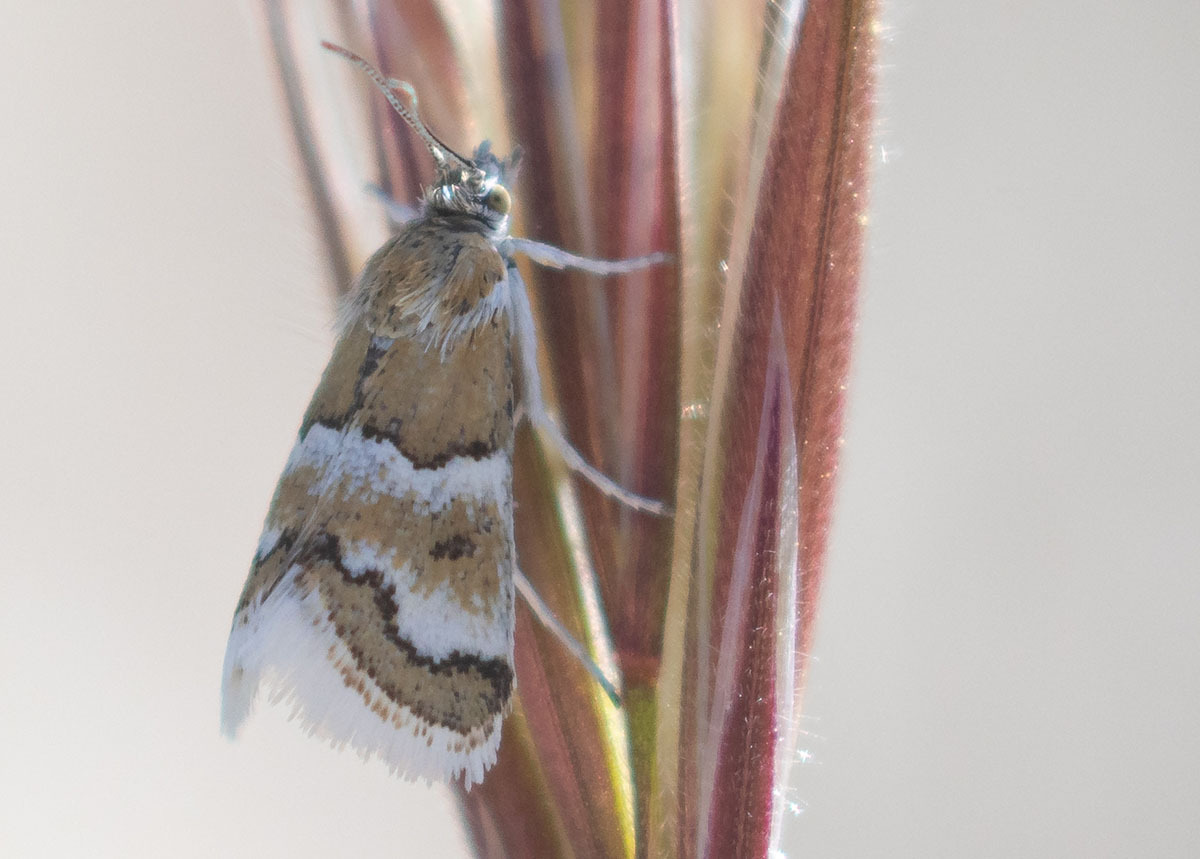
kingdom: Animalia
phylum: Arthropoda
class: Insecta
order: Lepidoptera
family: Crambidae
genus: Nannobotys
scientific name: Nannobotys commortalis
